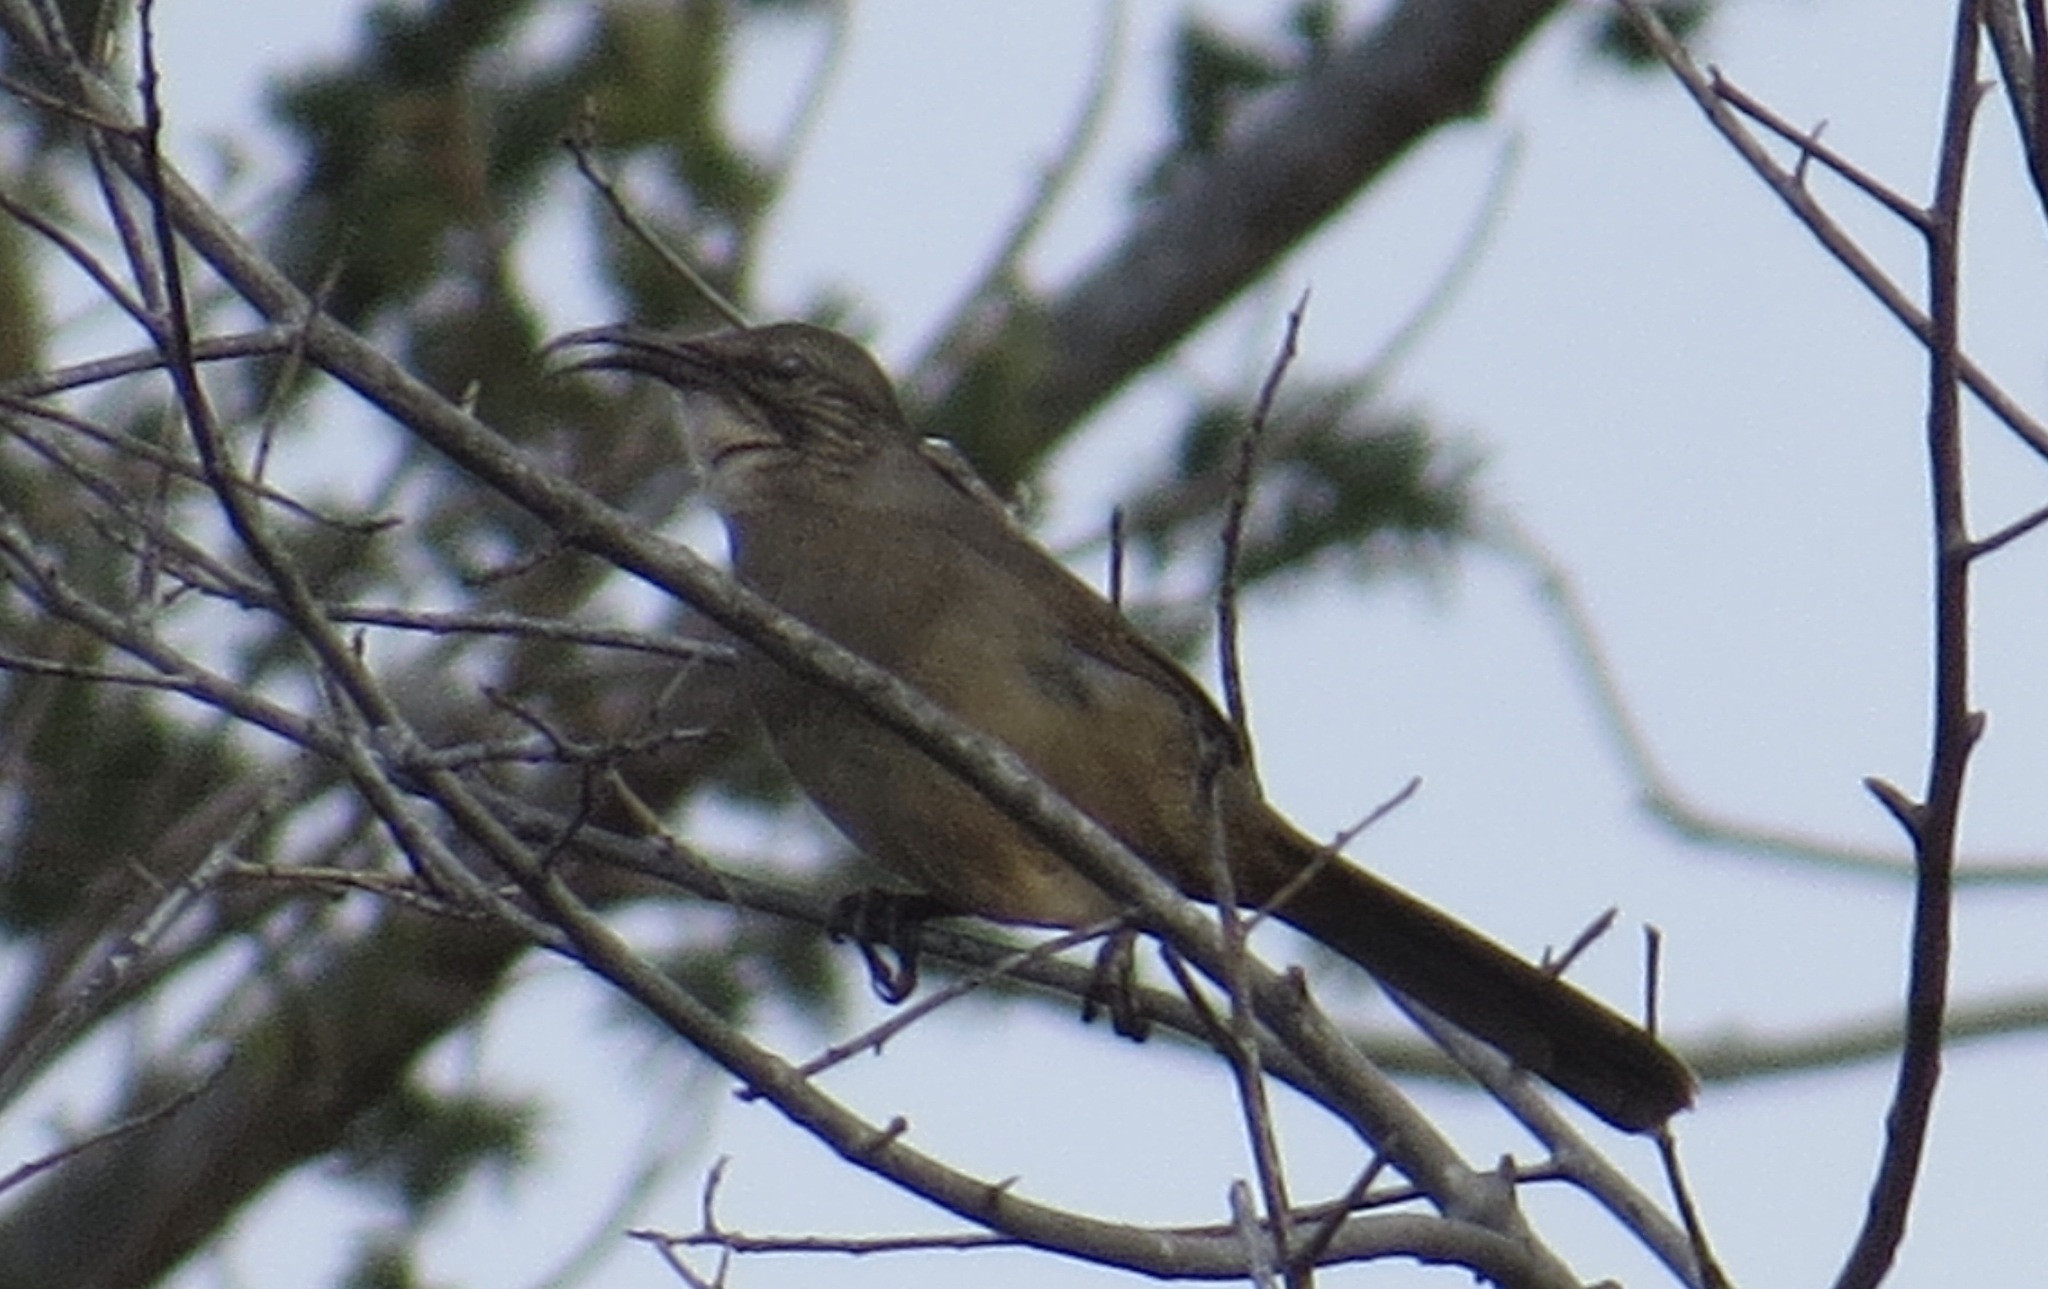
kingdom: Animalia
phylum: Chordata
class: Aves
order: Passeriformes
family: Mimidae
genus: Toxostoma
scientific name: Toxostoma redivivum
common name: California thrasher
